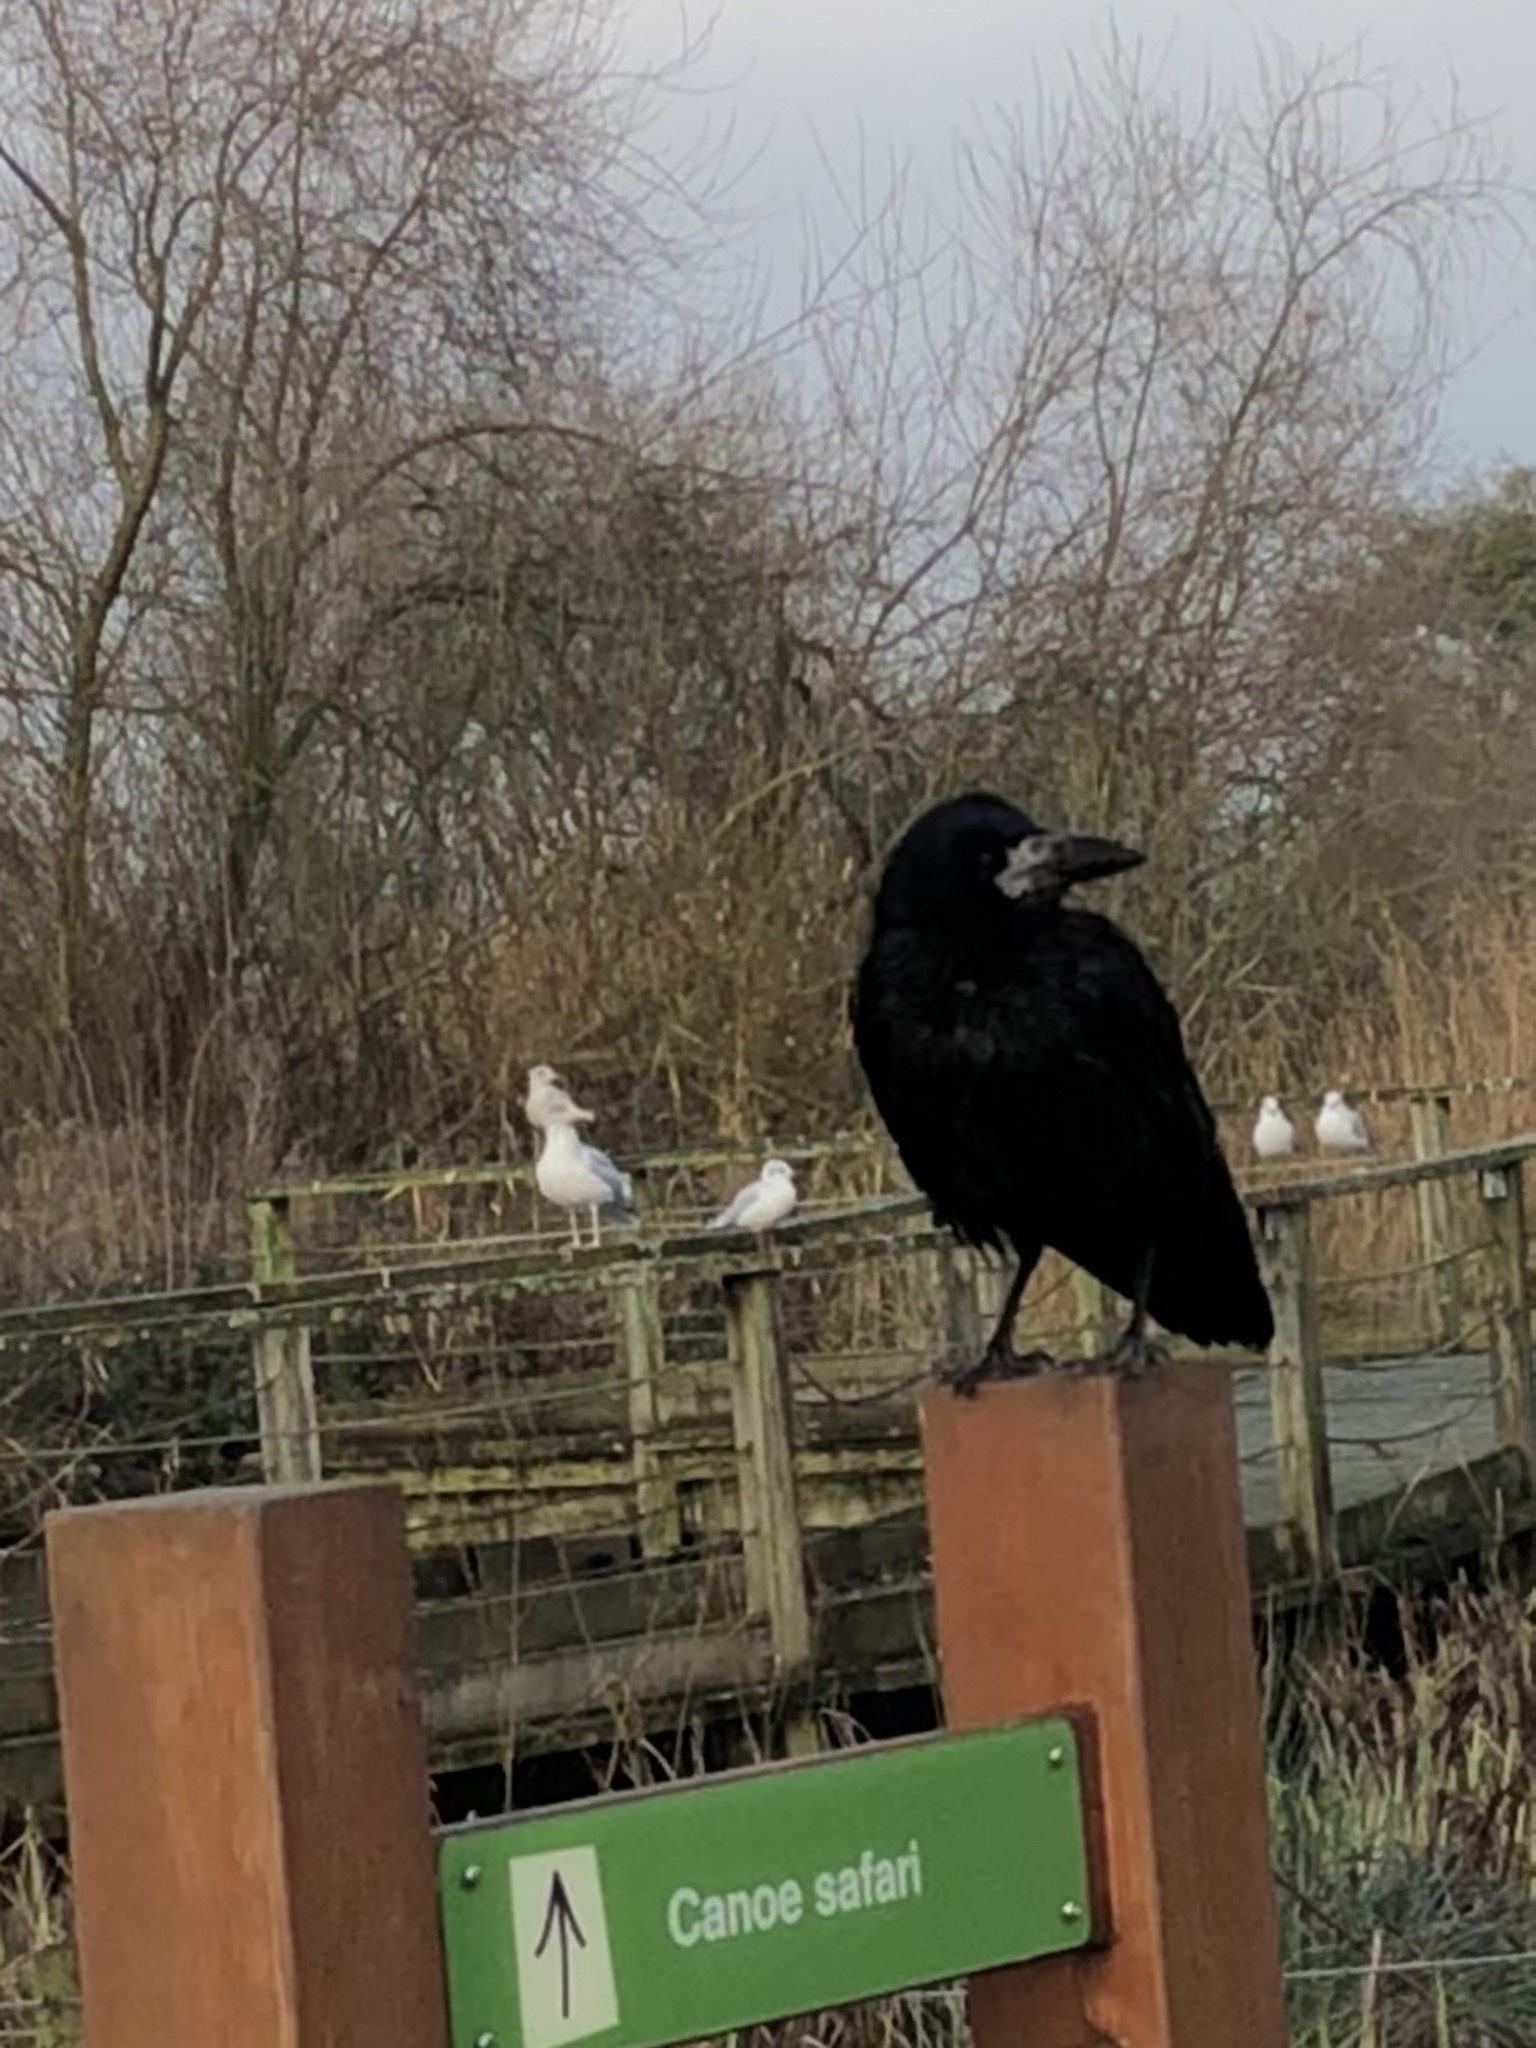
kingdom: Animalia
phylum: Chordata
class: Aves
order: Passeriformes
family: Corvidae
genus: Corvus
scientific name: Corvus frugilegus
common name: Rook
